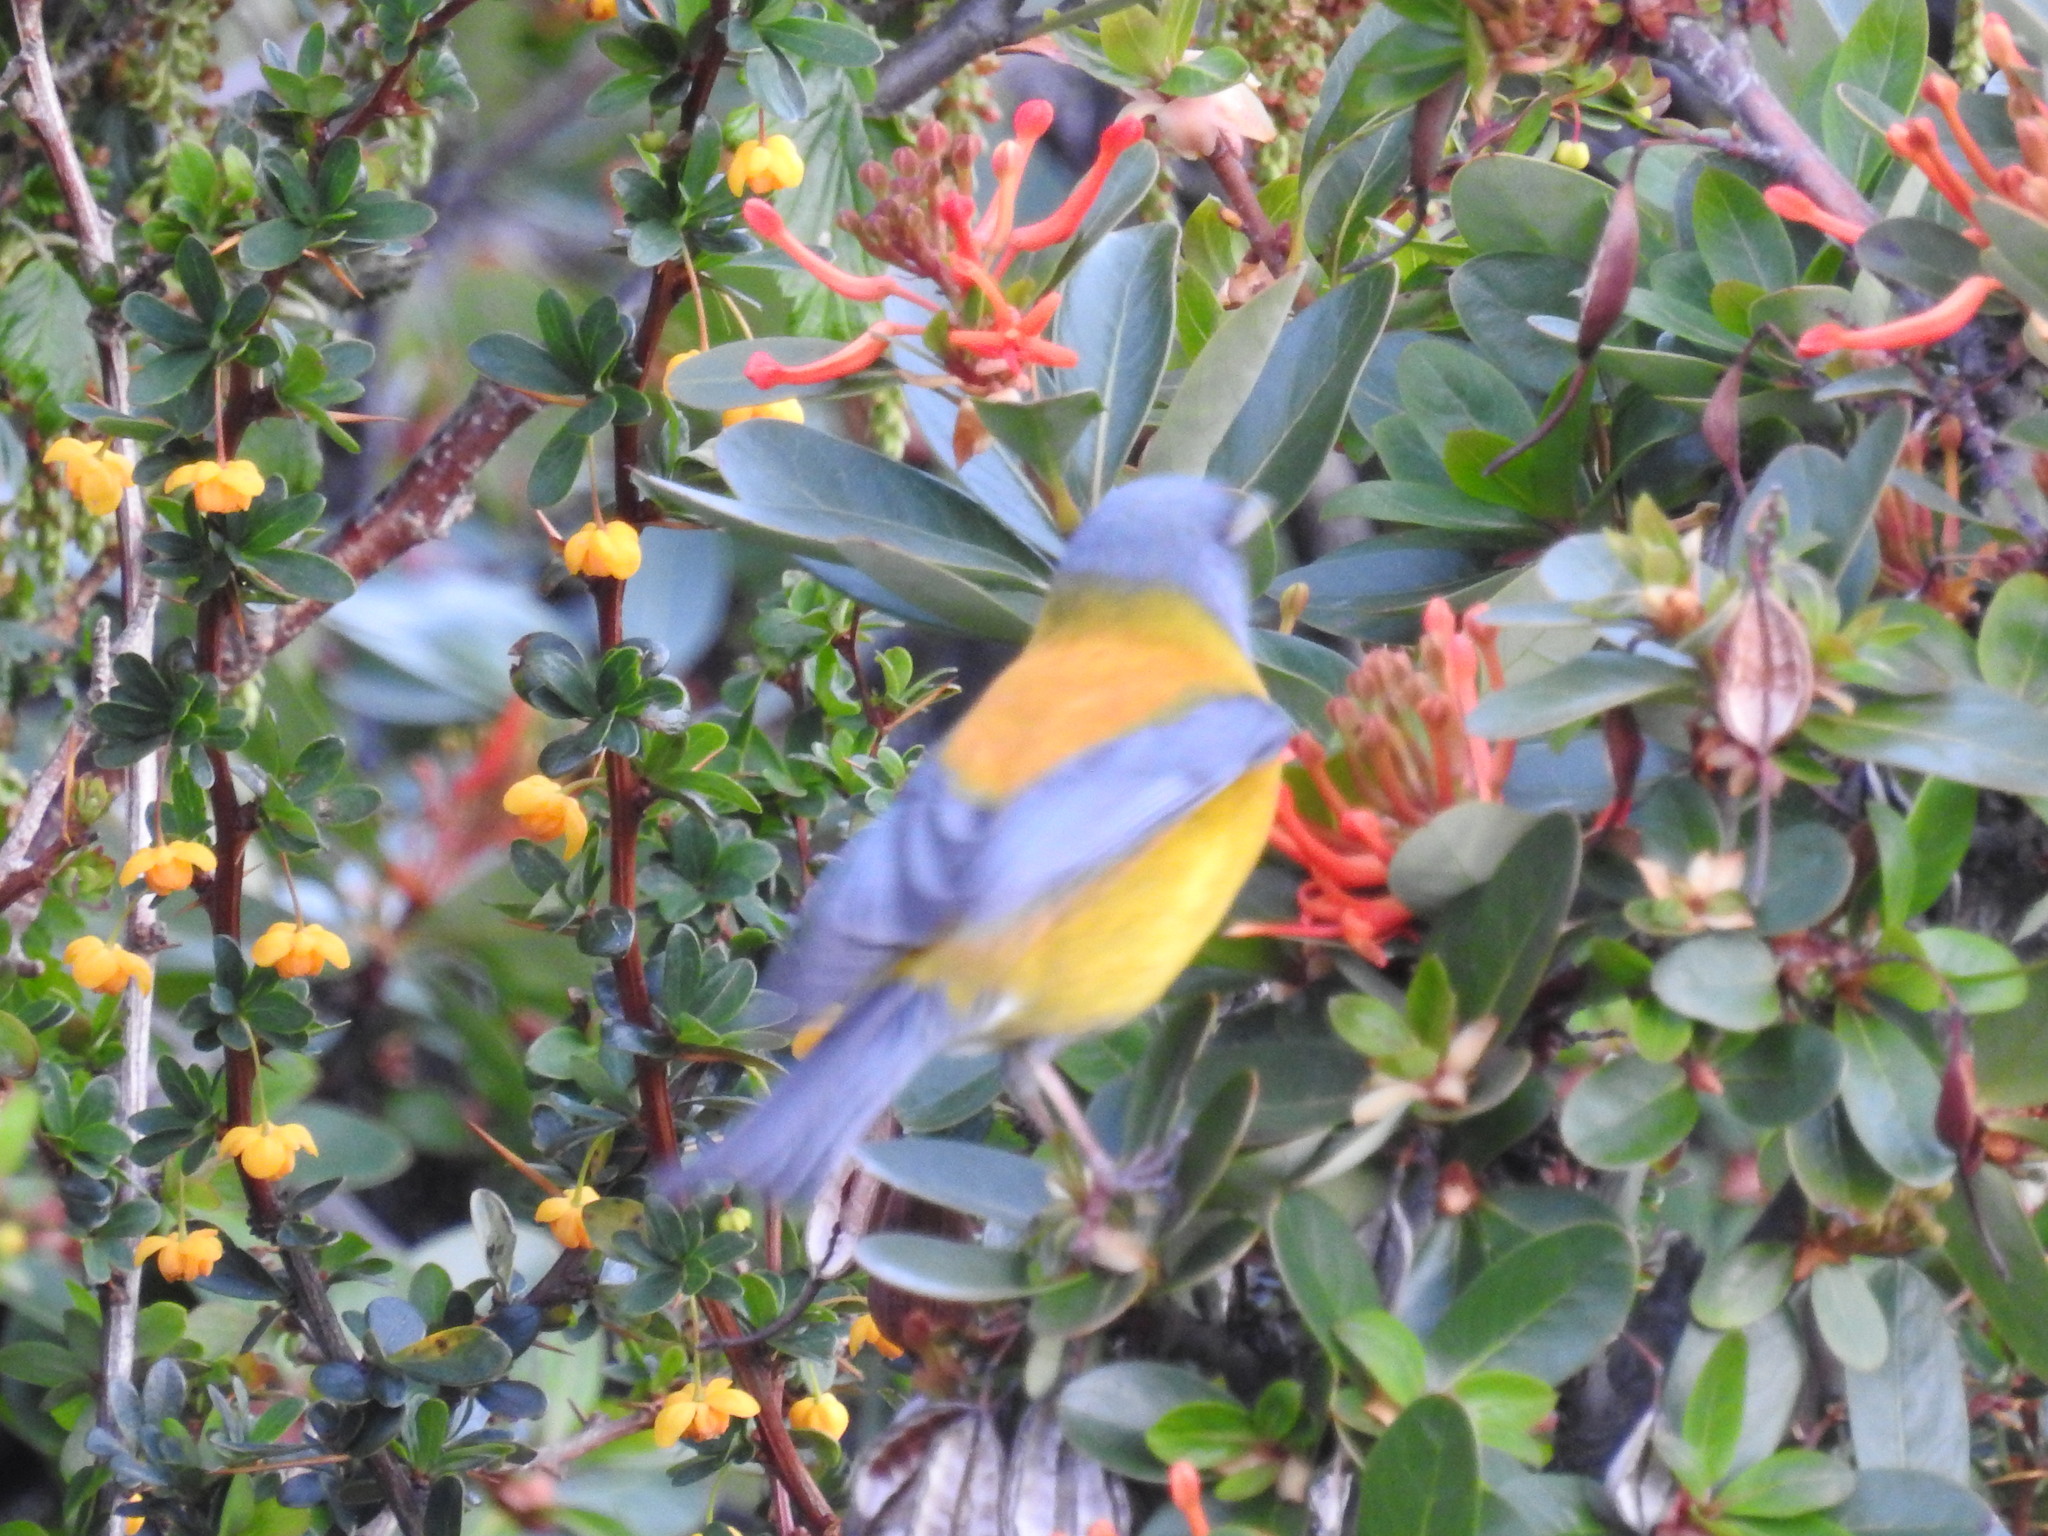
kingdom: Animalia
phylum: Chordata
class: Aves
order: Passeriformes
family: Thraupidae
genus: Phrygilus
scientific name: Phrygilus patagonicus
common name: Patagonian sierra finch
